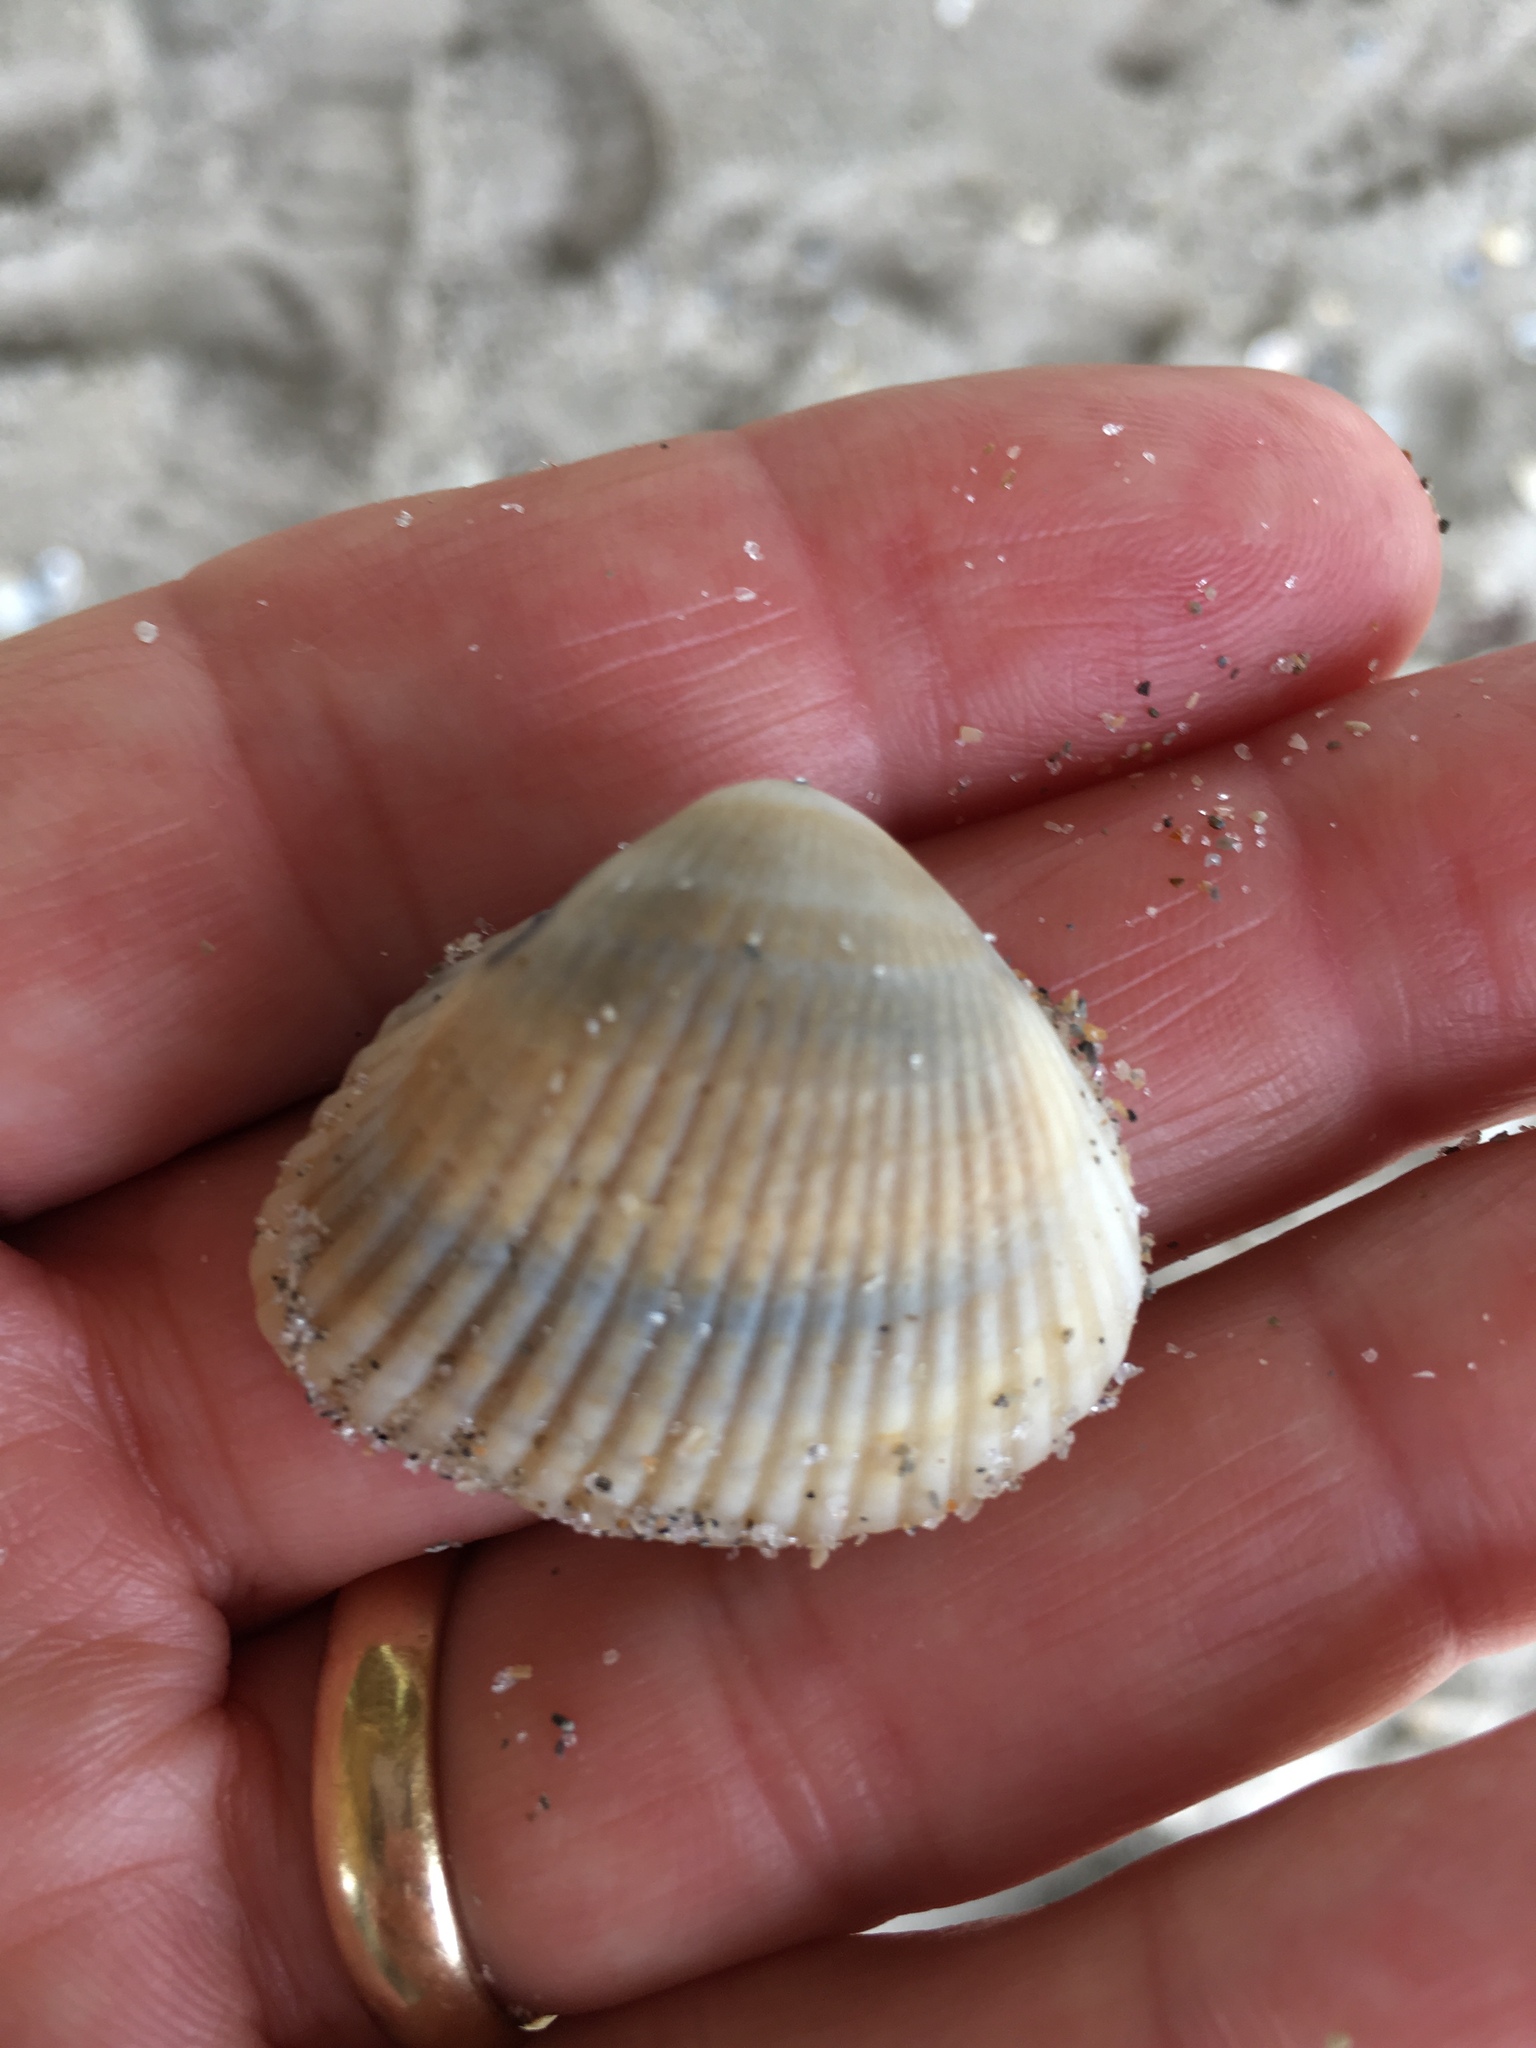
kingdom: Animalia
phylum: Mollusca
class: Bivalvia
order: Arcida
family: Noetiidae
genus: Noetia
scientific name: Noetia ponderosa
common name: Ponderous ark
